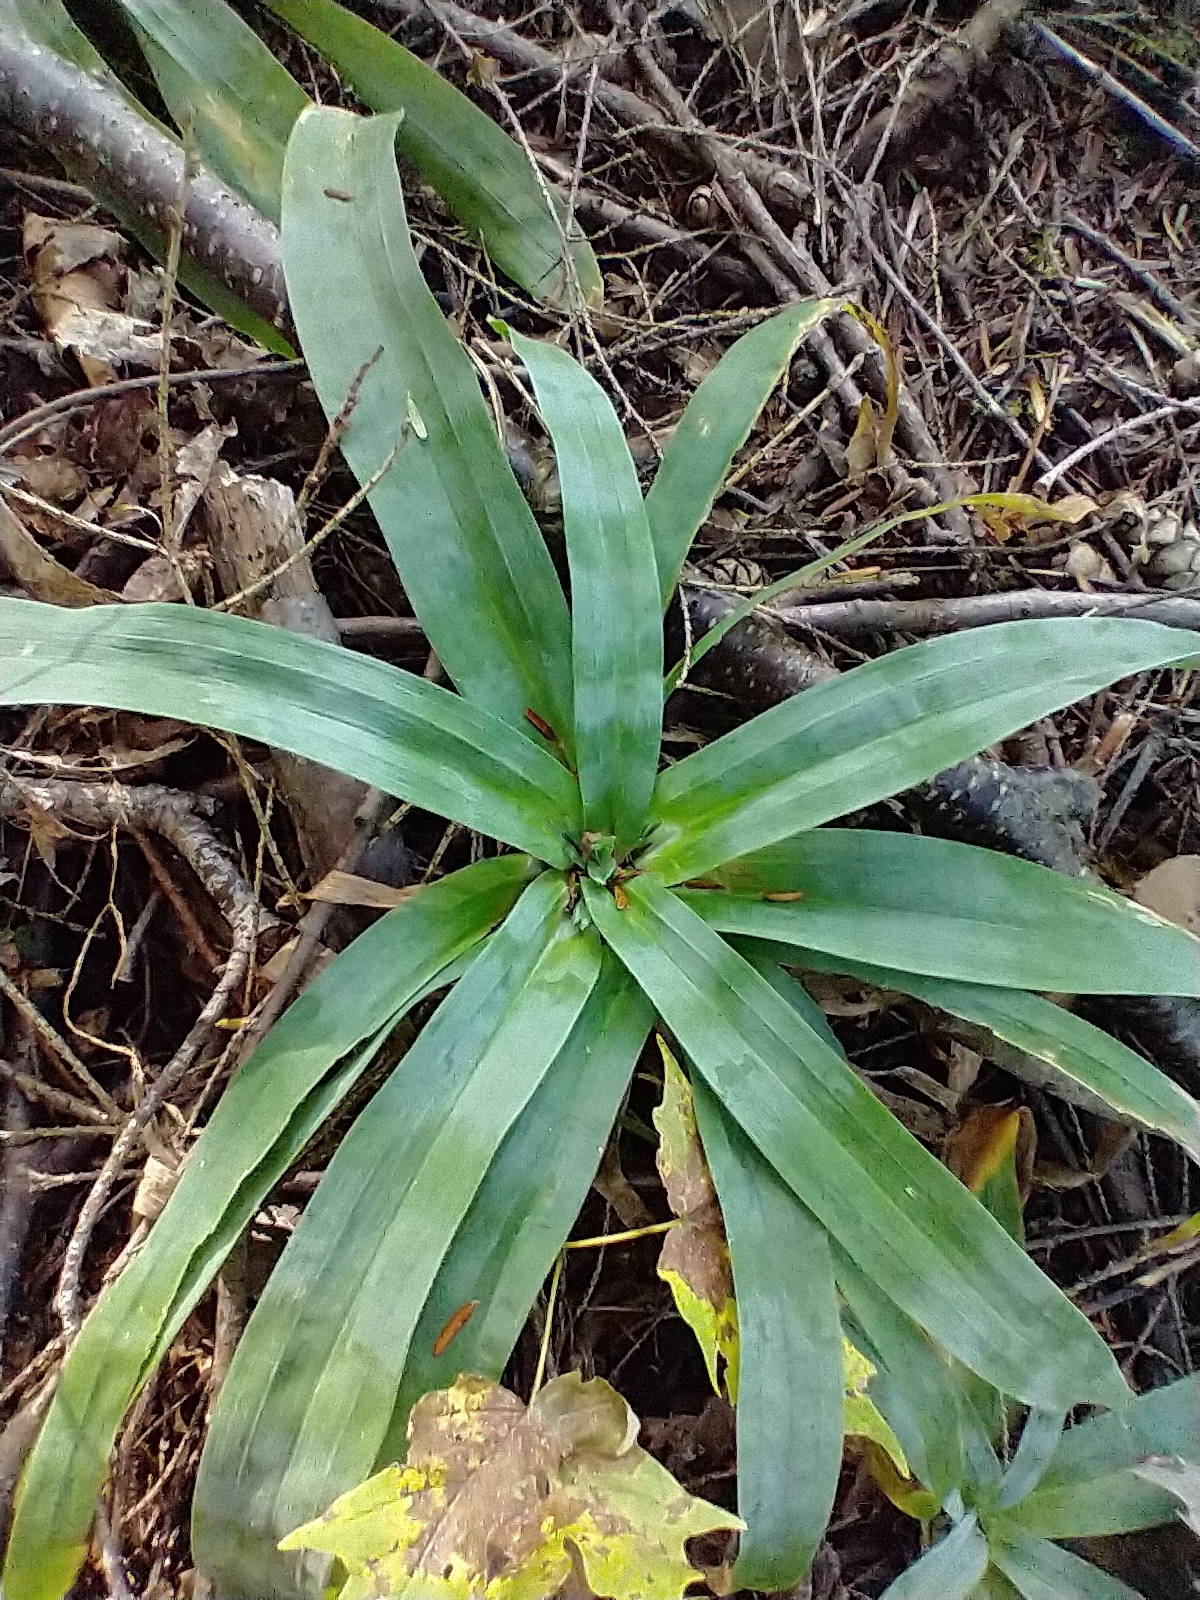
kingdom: Plantae
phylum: Tracheophyta
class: Liliopsida
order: Poales
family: Cyperaceae
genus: Carex
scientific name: Carex platyphylla
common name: Broad-leaved sedge
